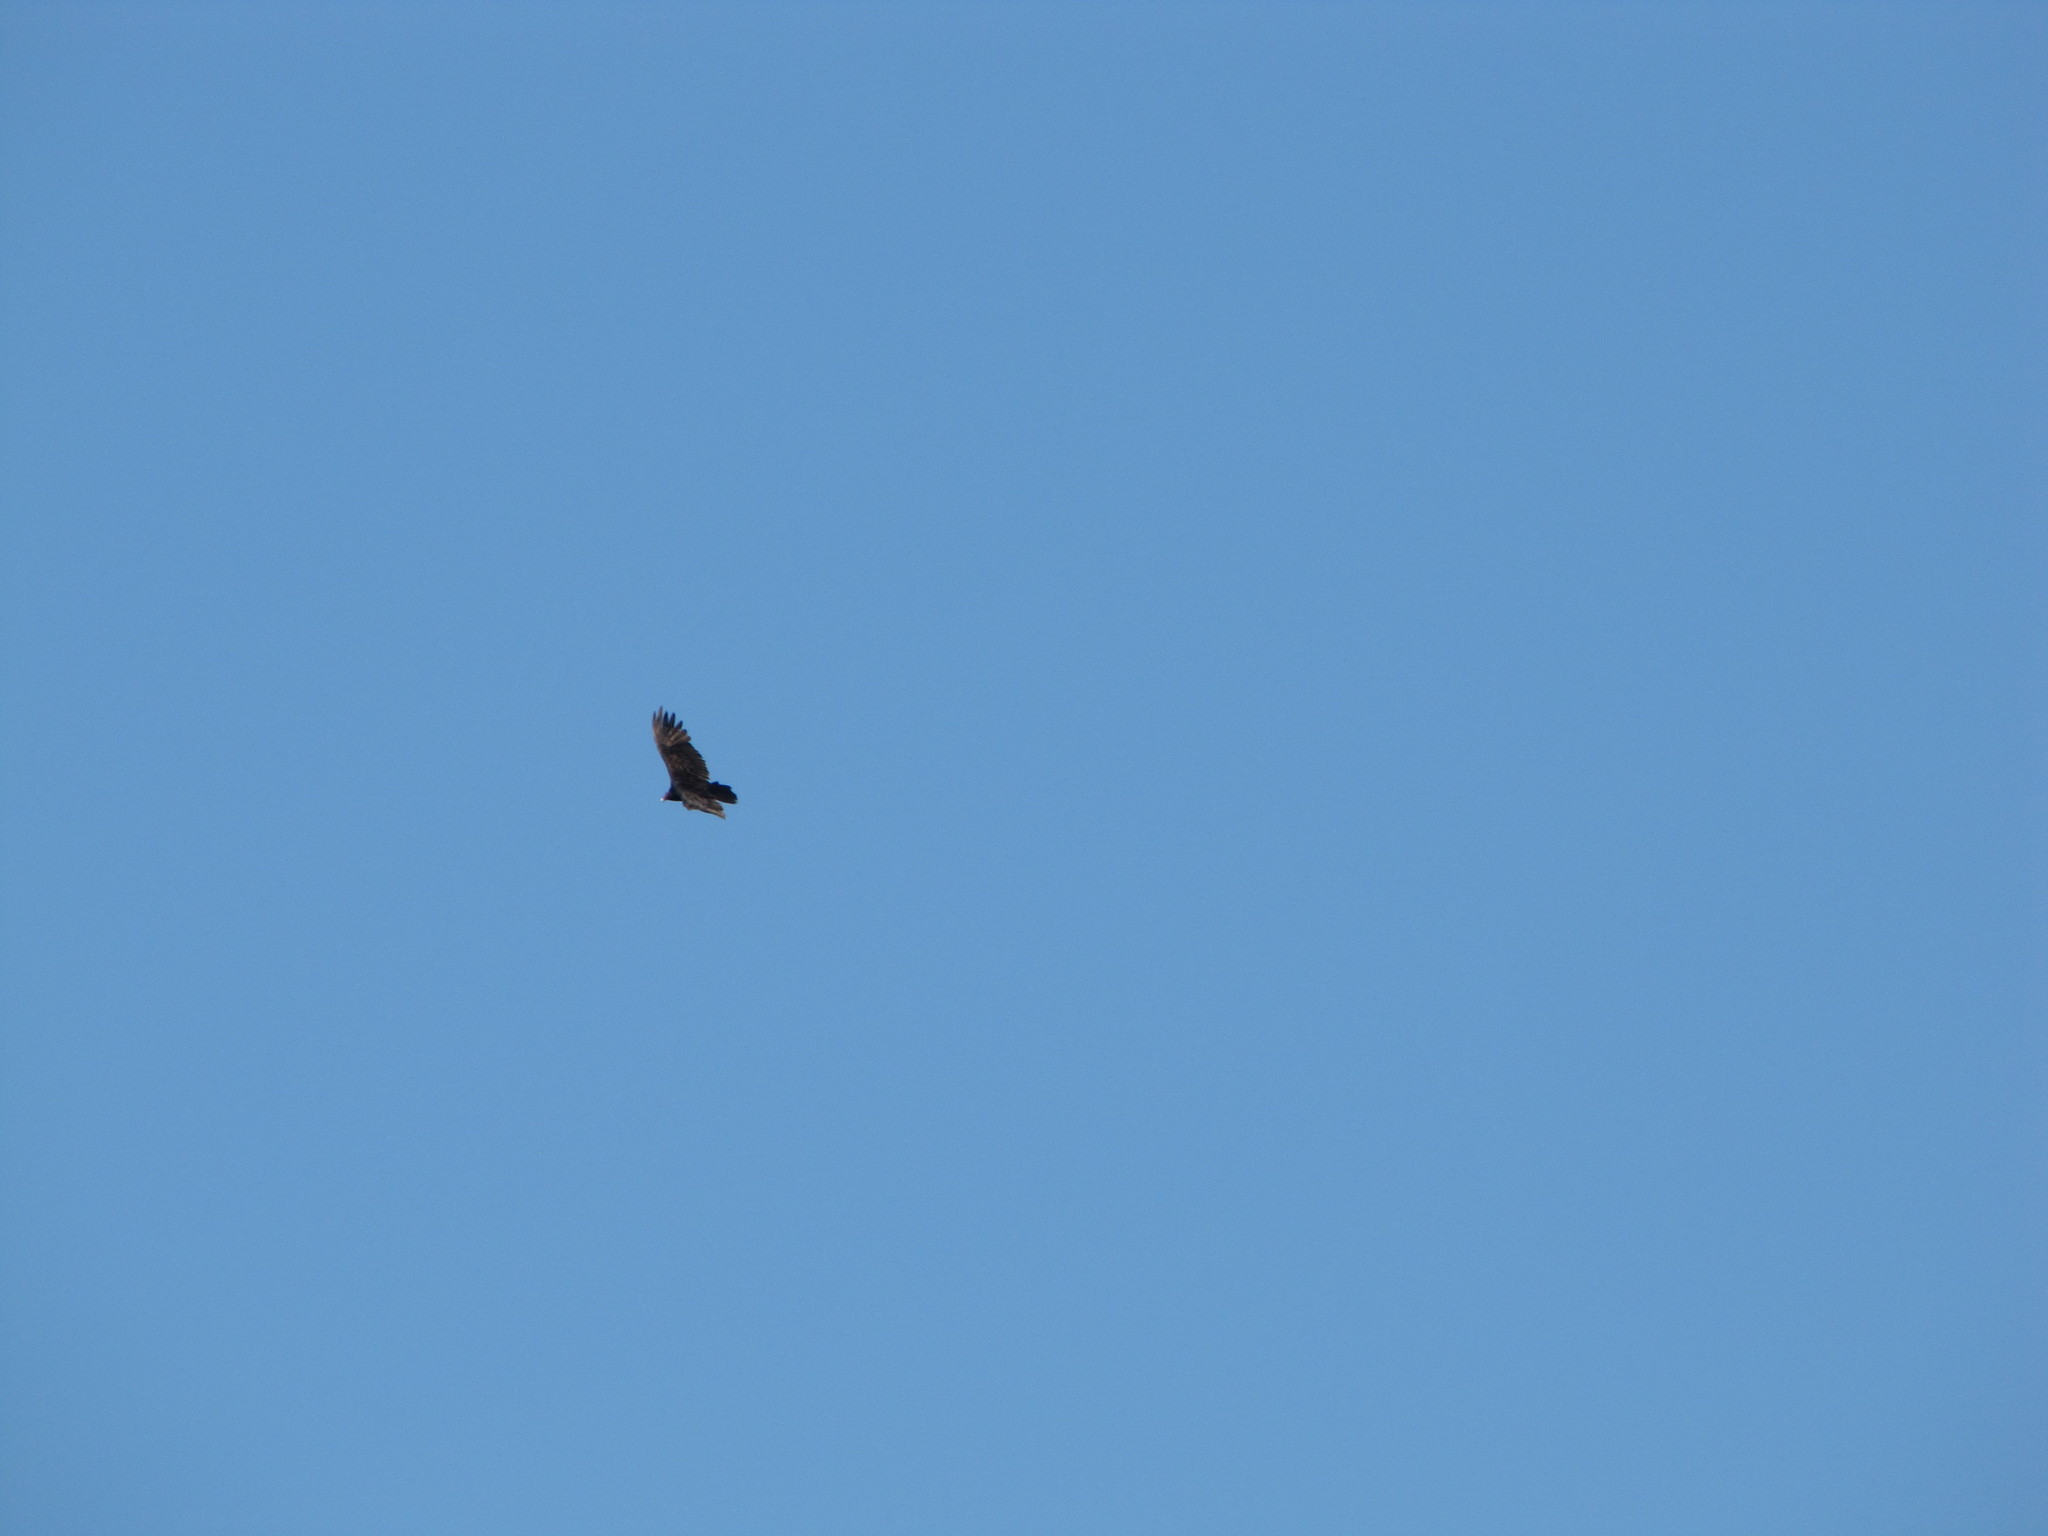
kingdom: Animalia
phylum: Chordata
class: Aves
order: Accipitriformes
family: Cathartidae
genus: Cathartes
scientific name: Cathartes aura
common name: Turkey vulture
